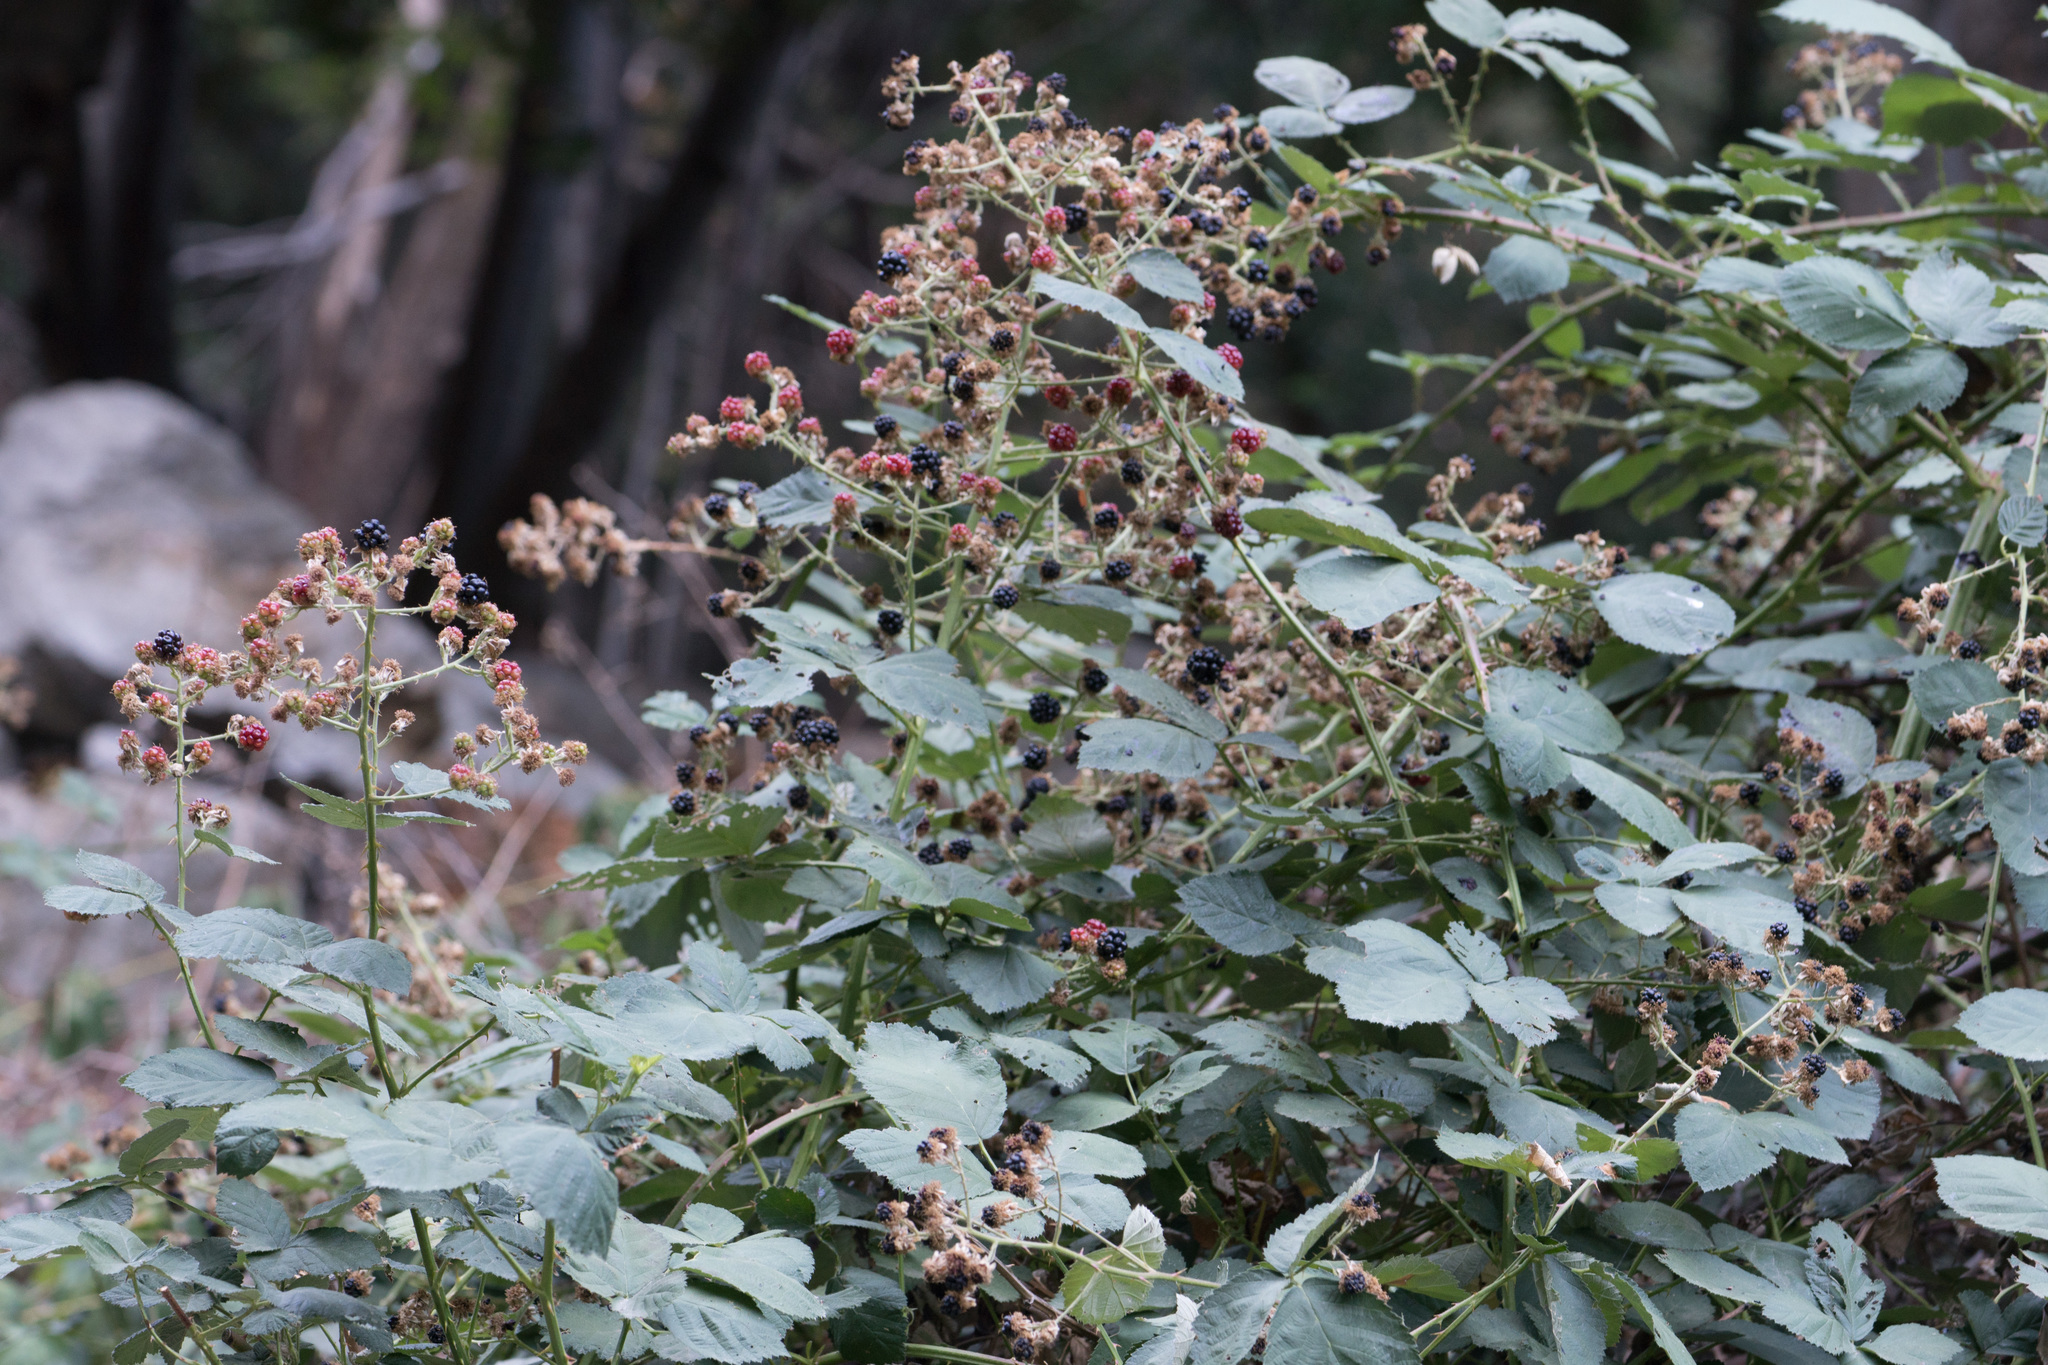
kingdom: Plantae
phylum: Tracheophyta
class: Magnoliopsida
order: Rosales
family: Rosaceae
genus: Rubus
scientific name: Rubus armeniacus
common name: Himalayan blackberry
